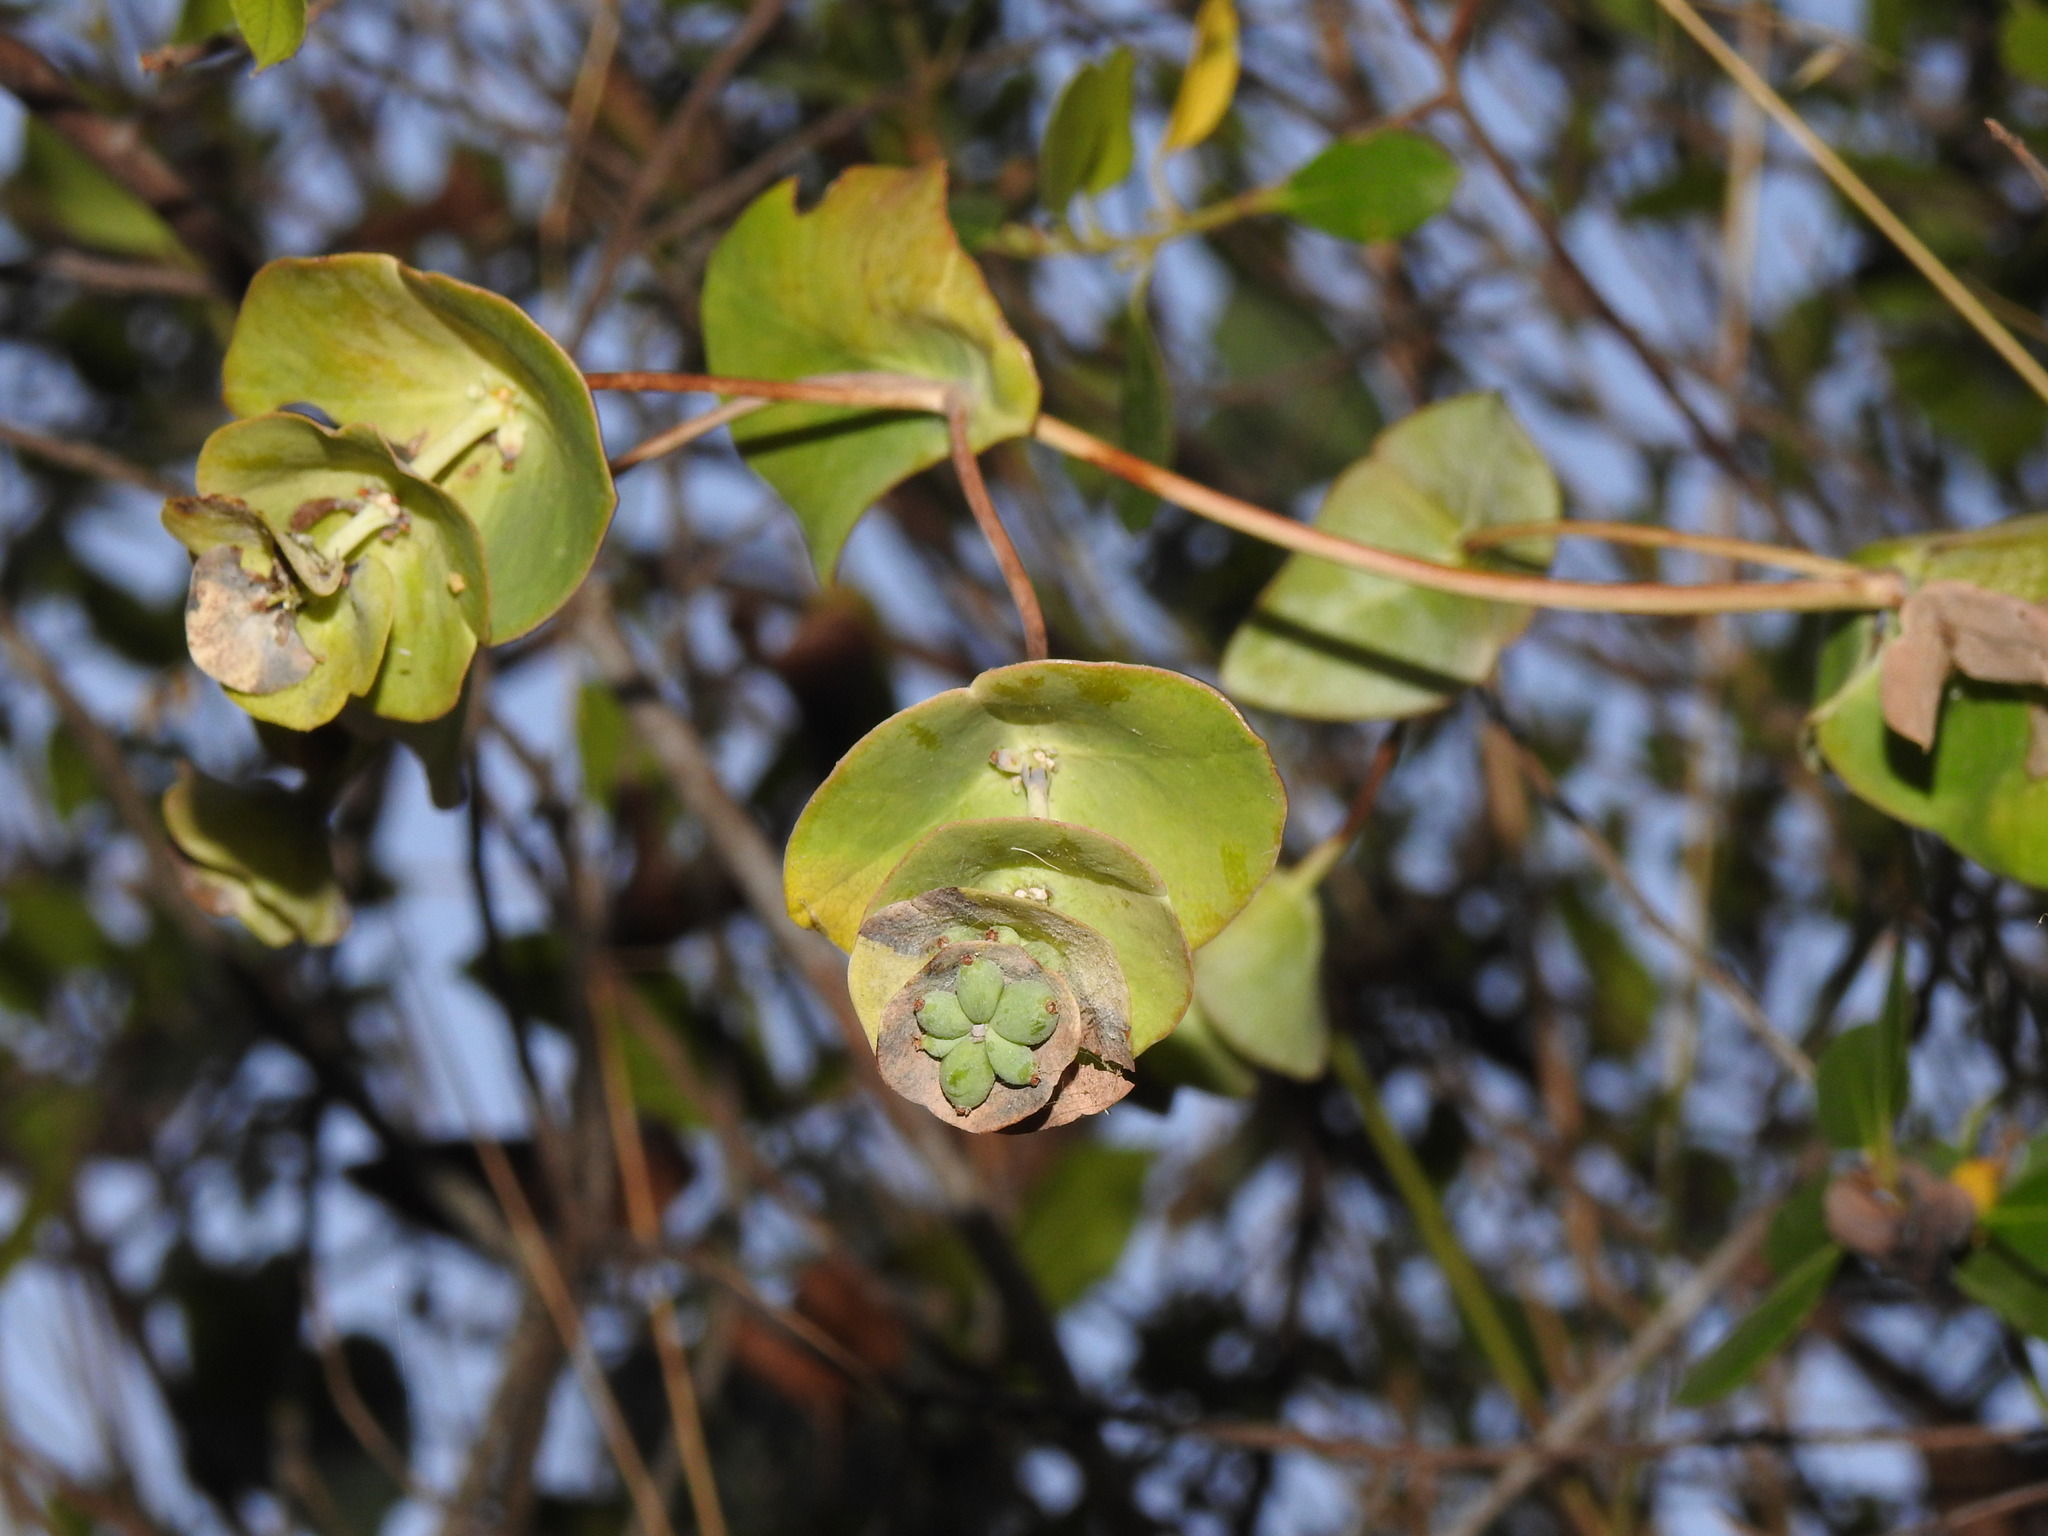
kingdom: Plantae
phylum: Tracheophyta
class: Magnoliopsida
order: Dipsacales
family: Caprifoliaceae
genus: Lonicera
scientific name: Lonicera implexa
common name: Minorca honeysuckle
